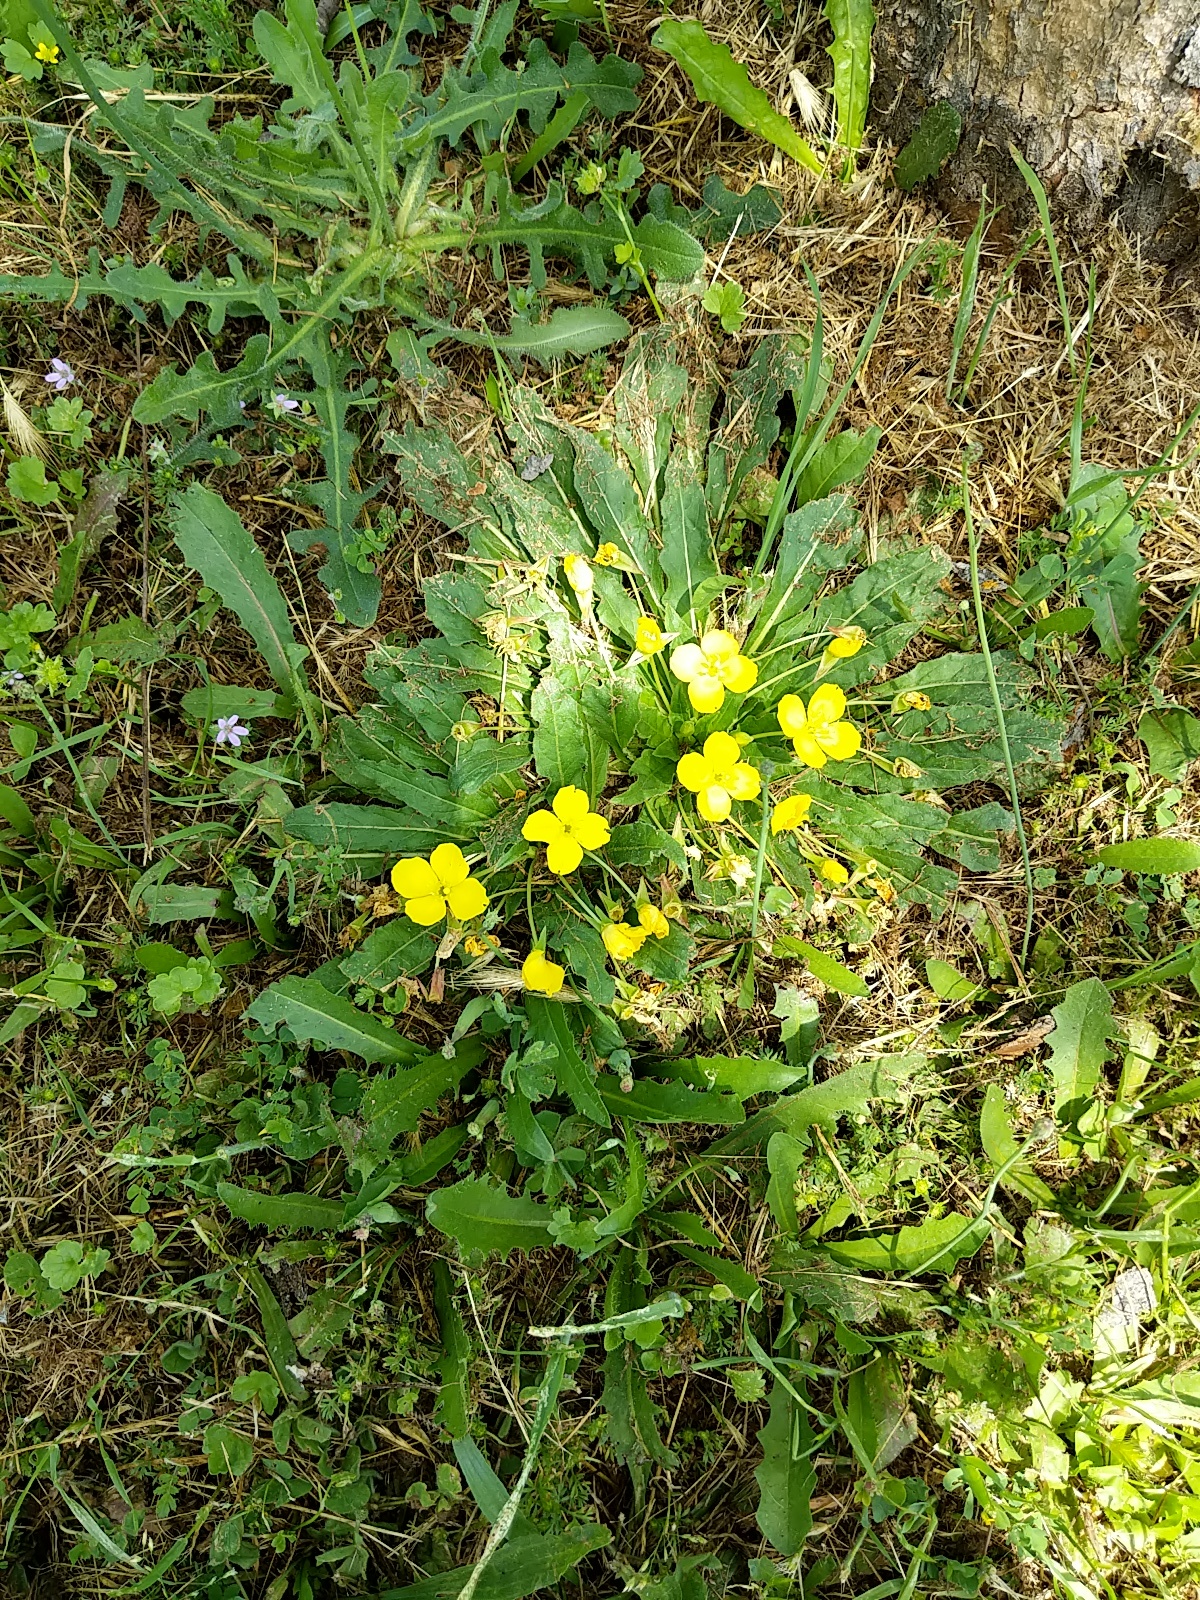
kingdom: Plantae
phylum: Tracheophyta
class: Magnoliopsida
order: Myrtales
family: Onagraceae
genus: Taraxia
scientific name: Taraxia ovata
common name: Goldeneggs
